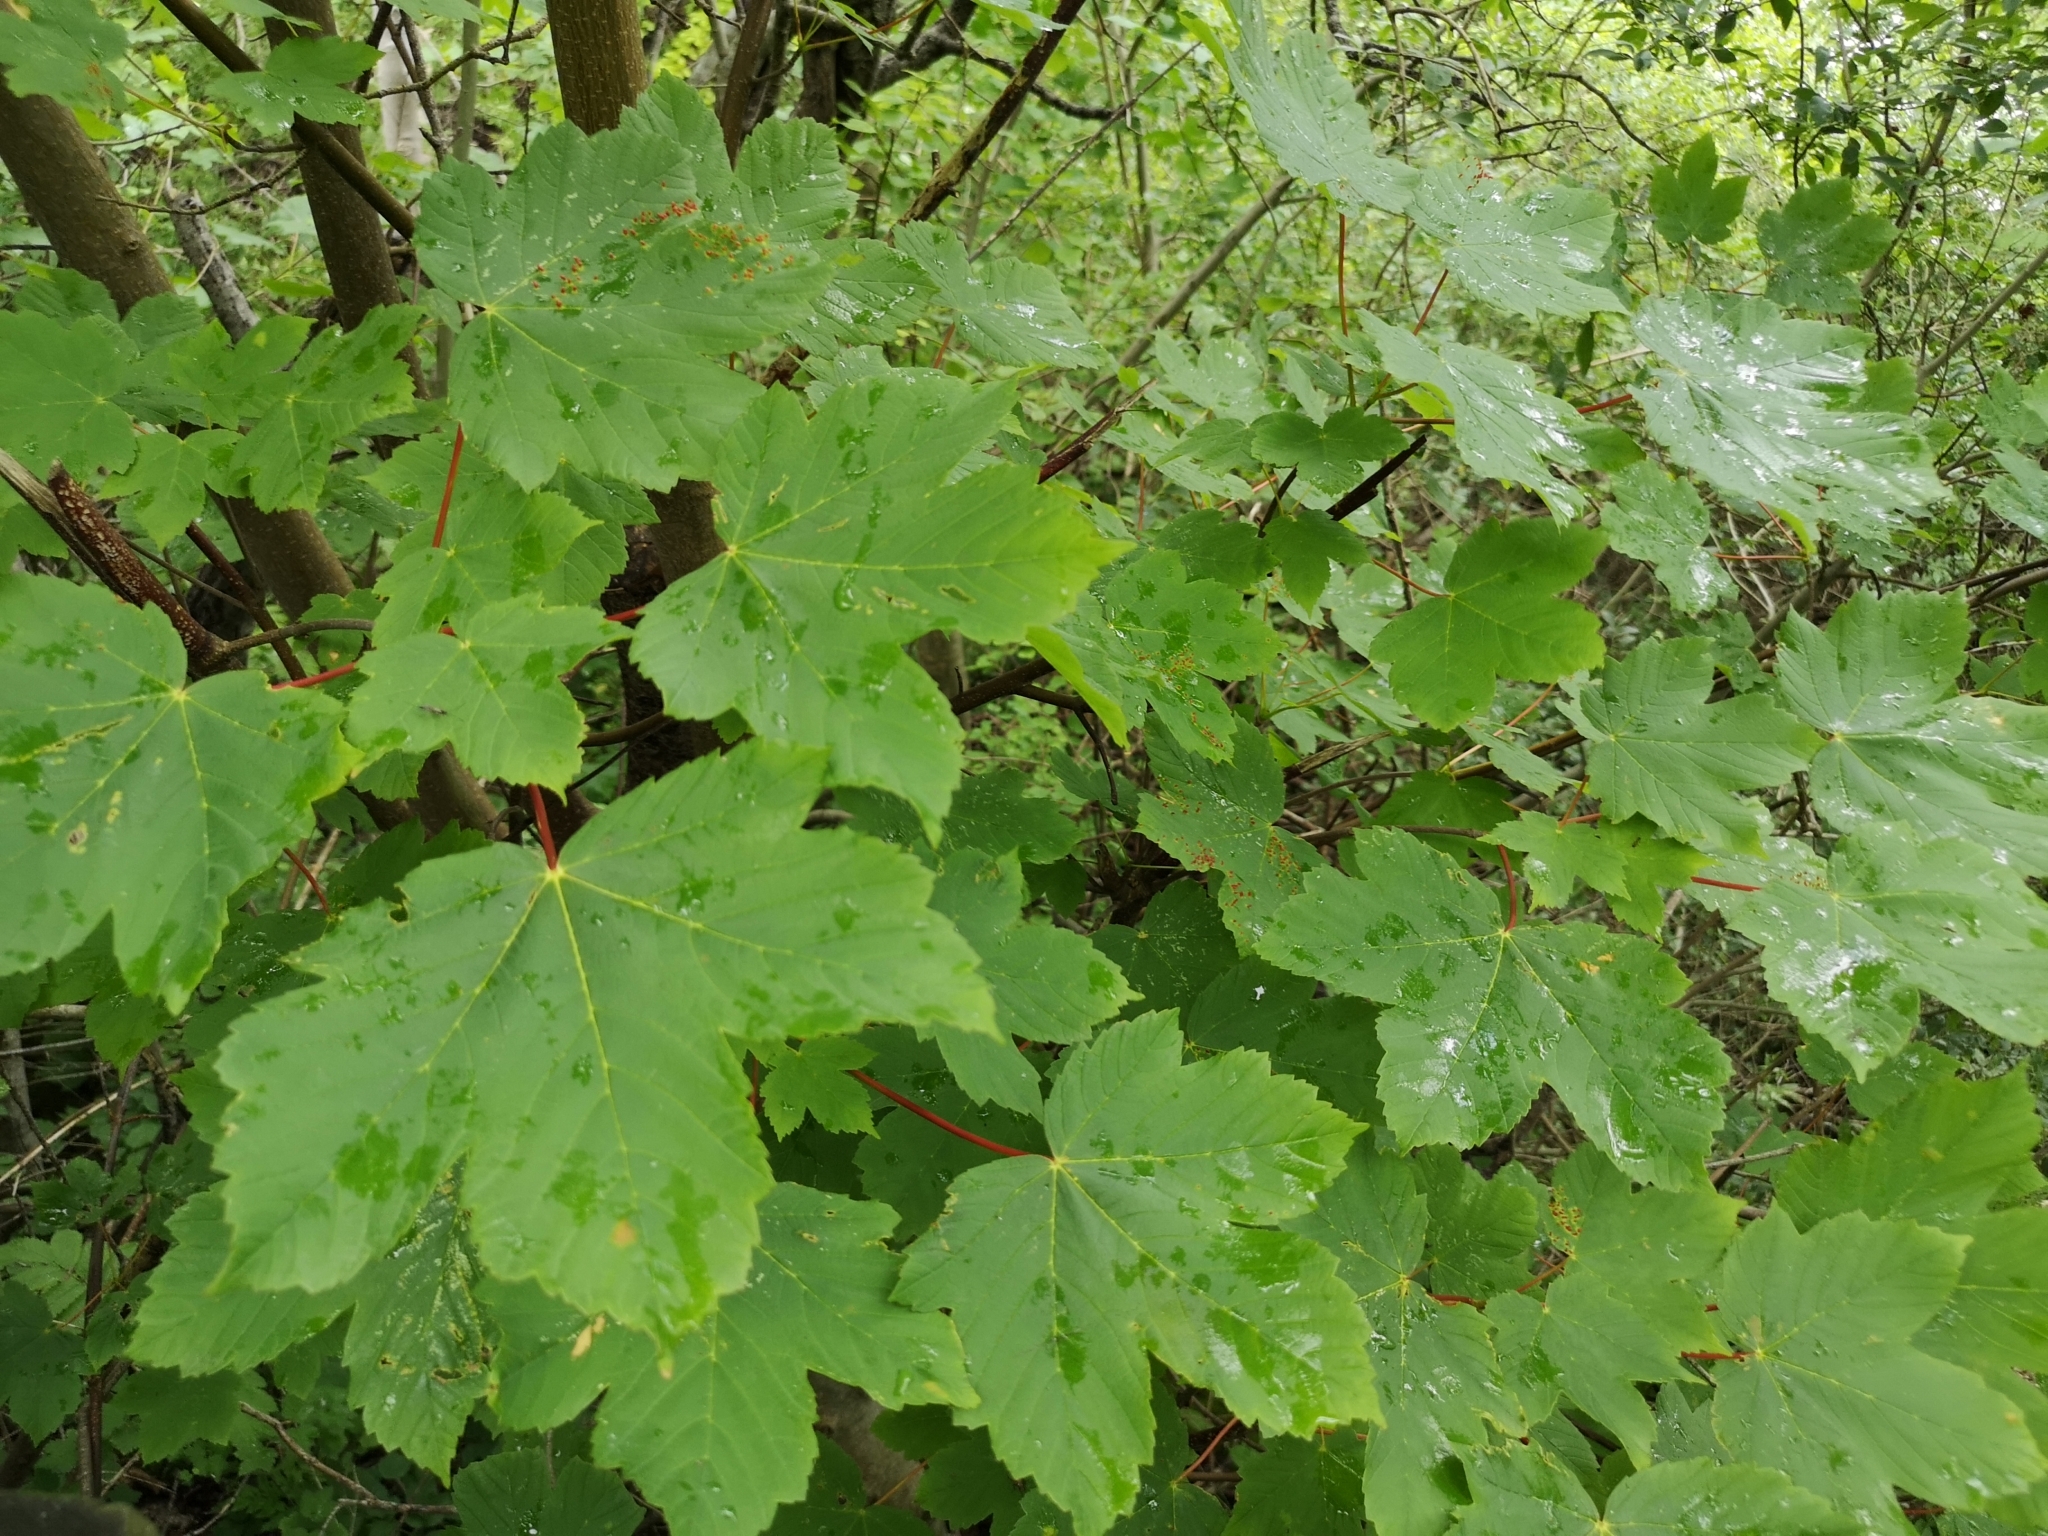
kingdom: Plantae
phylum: Tracheophyta
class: Magnoliopsida
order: Sapindales
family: Sapindaceae
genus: Acer
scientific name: Acer pseudoplatanus
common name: Sycamore
